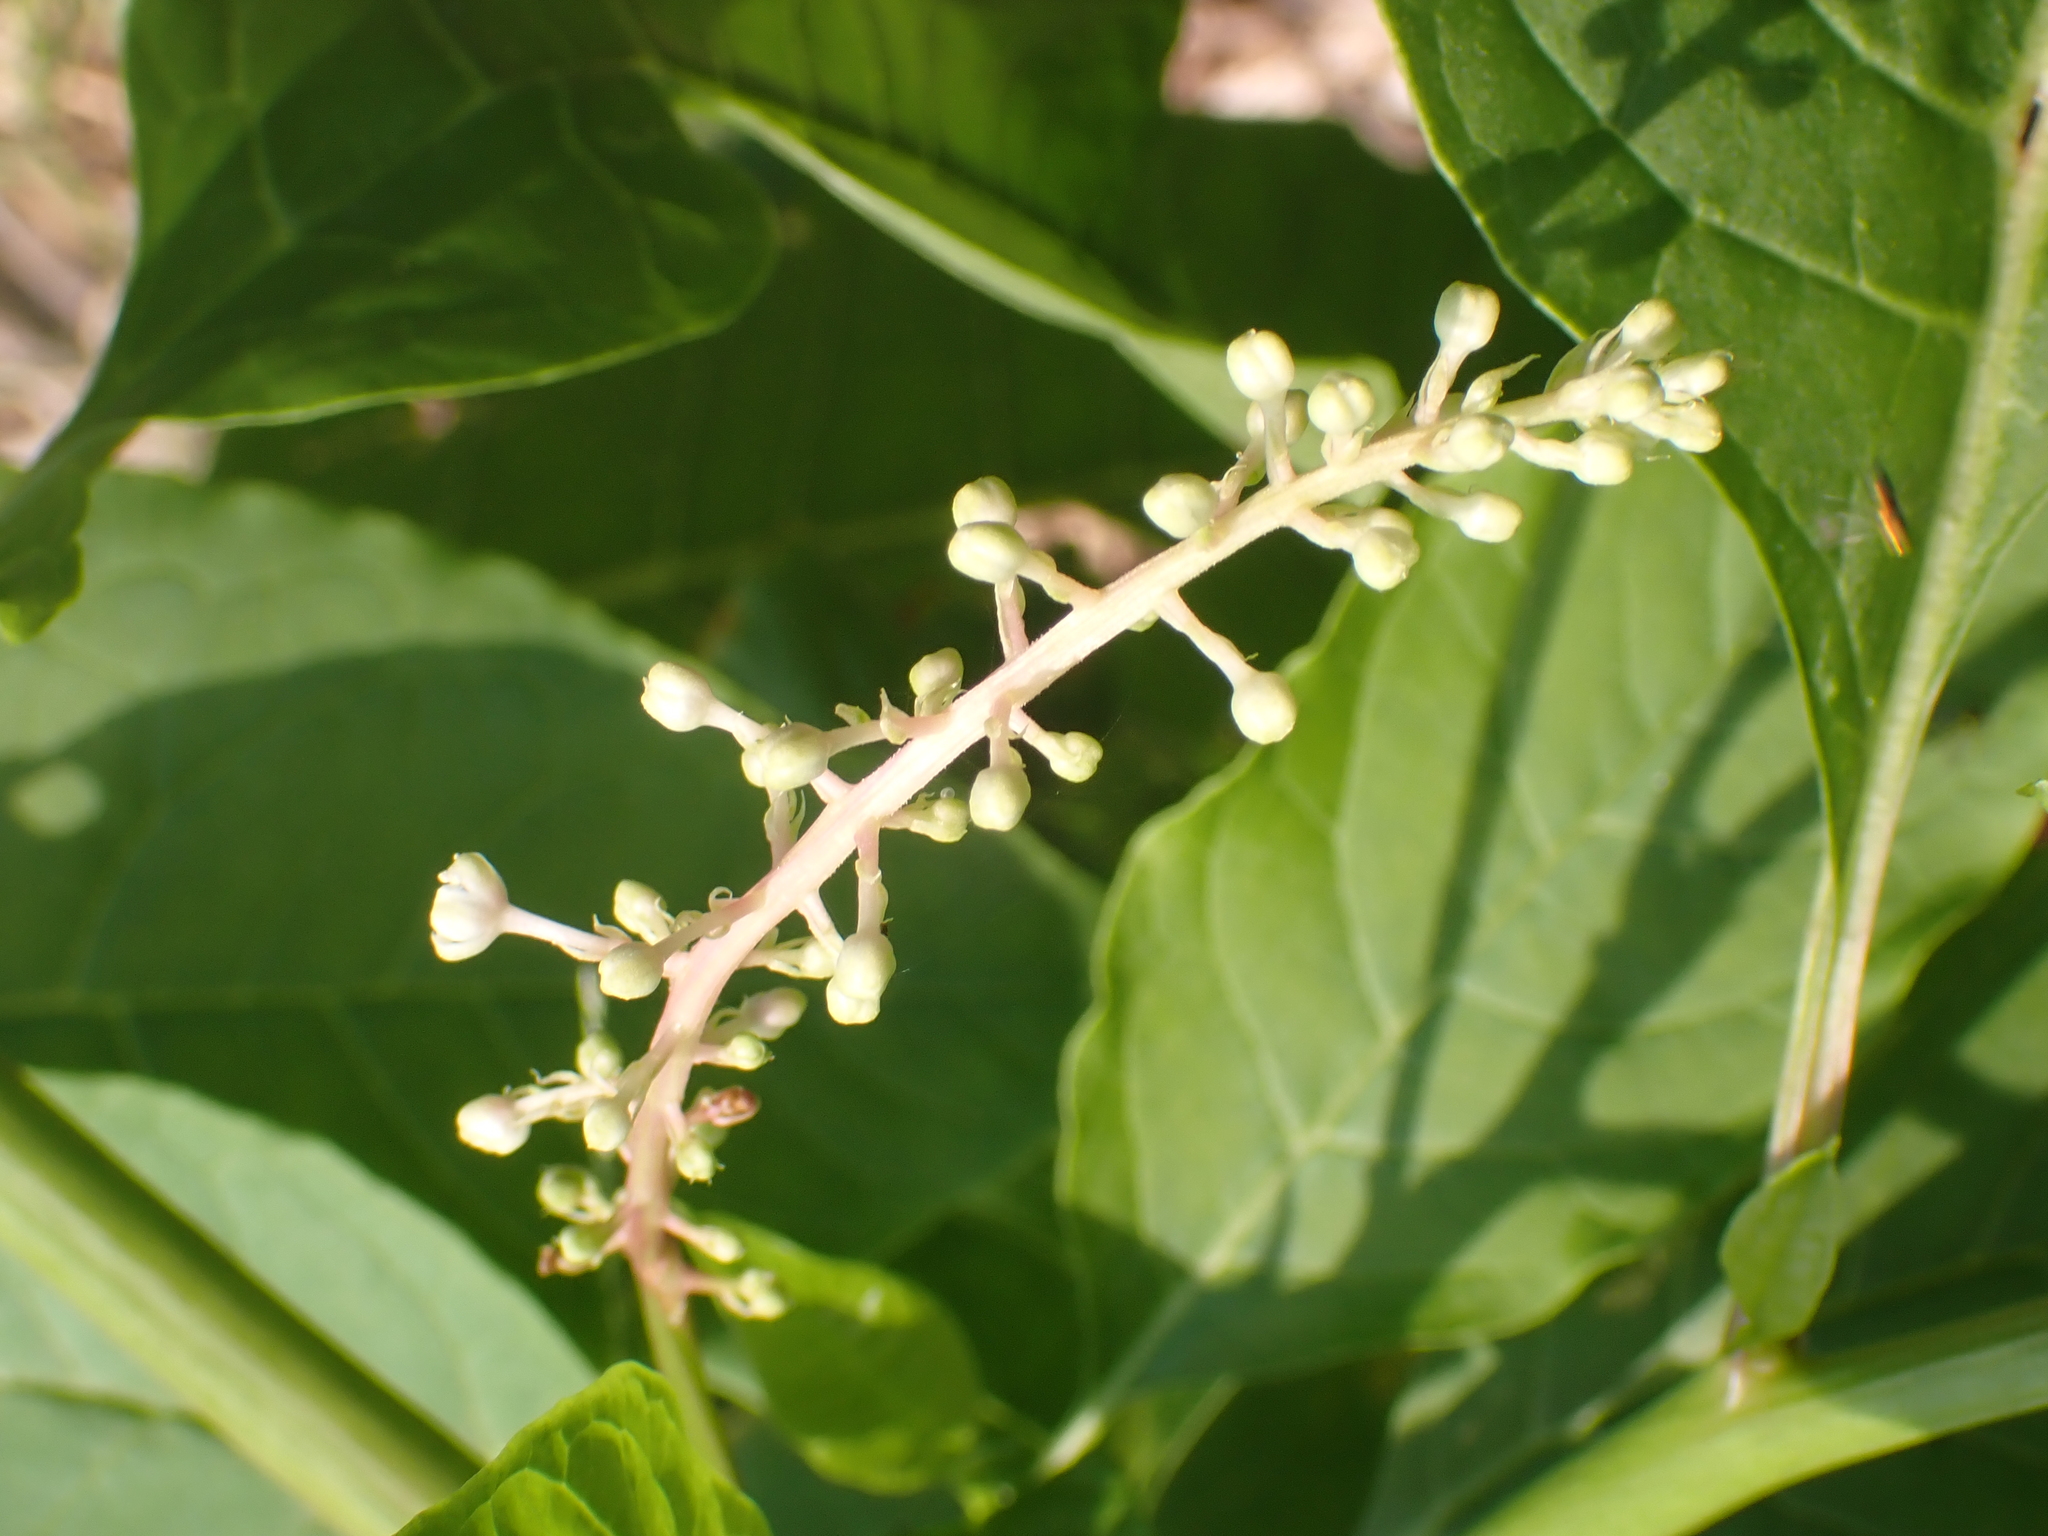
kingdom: Plantae
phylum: Tracheophyta
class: Magnoliopsida
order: Caryophyllales
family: Phytolaccaceae
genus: Phytolacca
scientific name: Phytolacca americana
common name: American pokeweed
